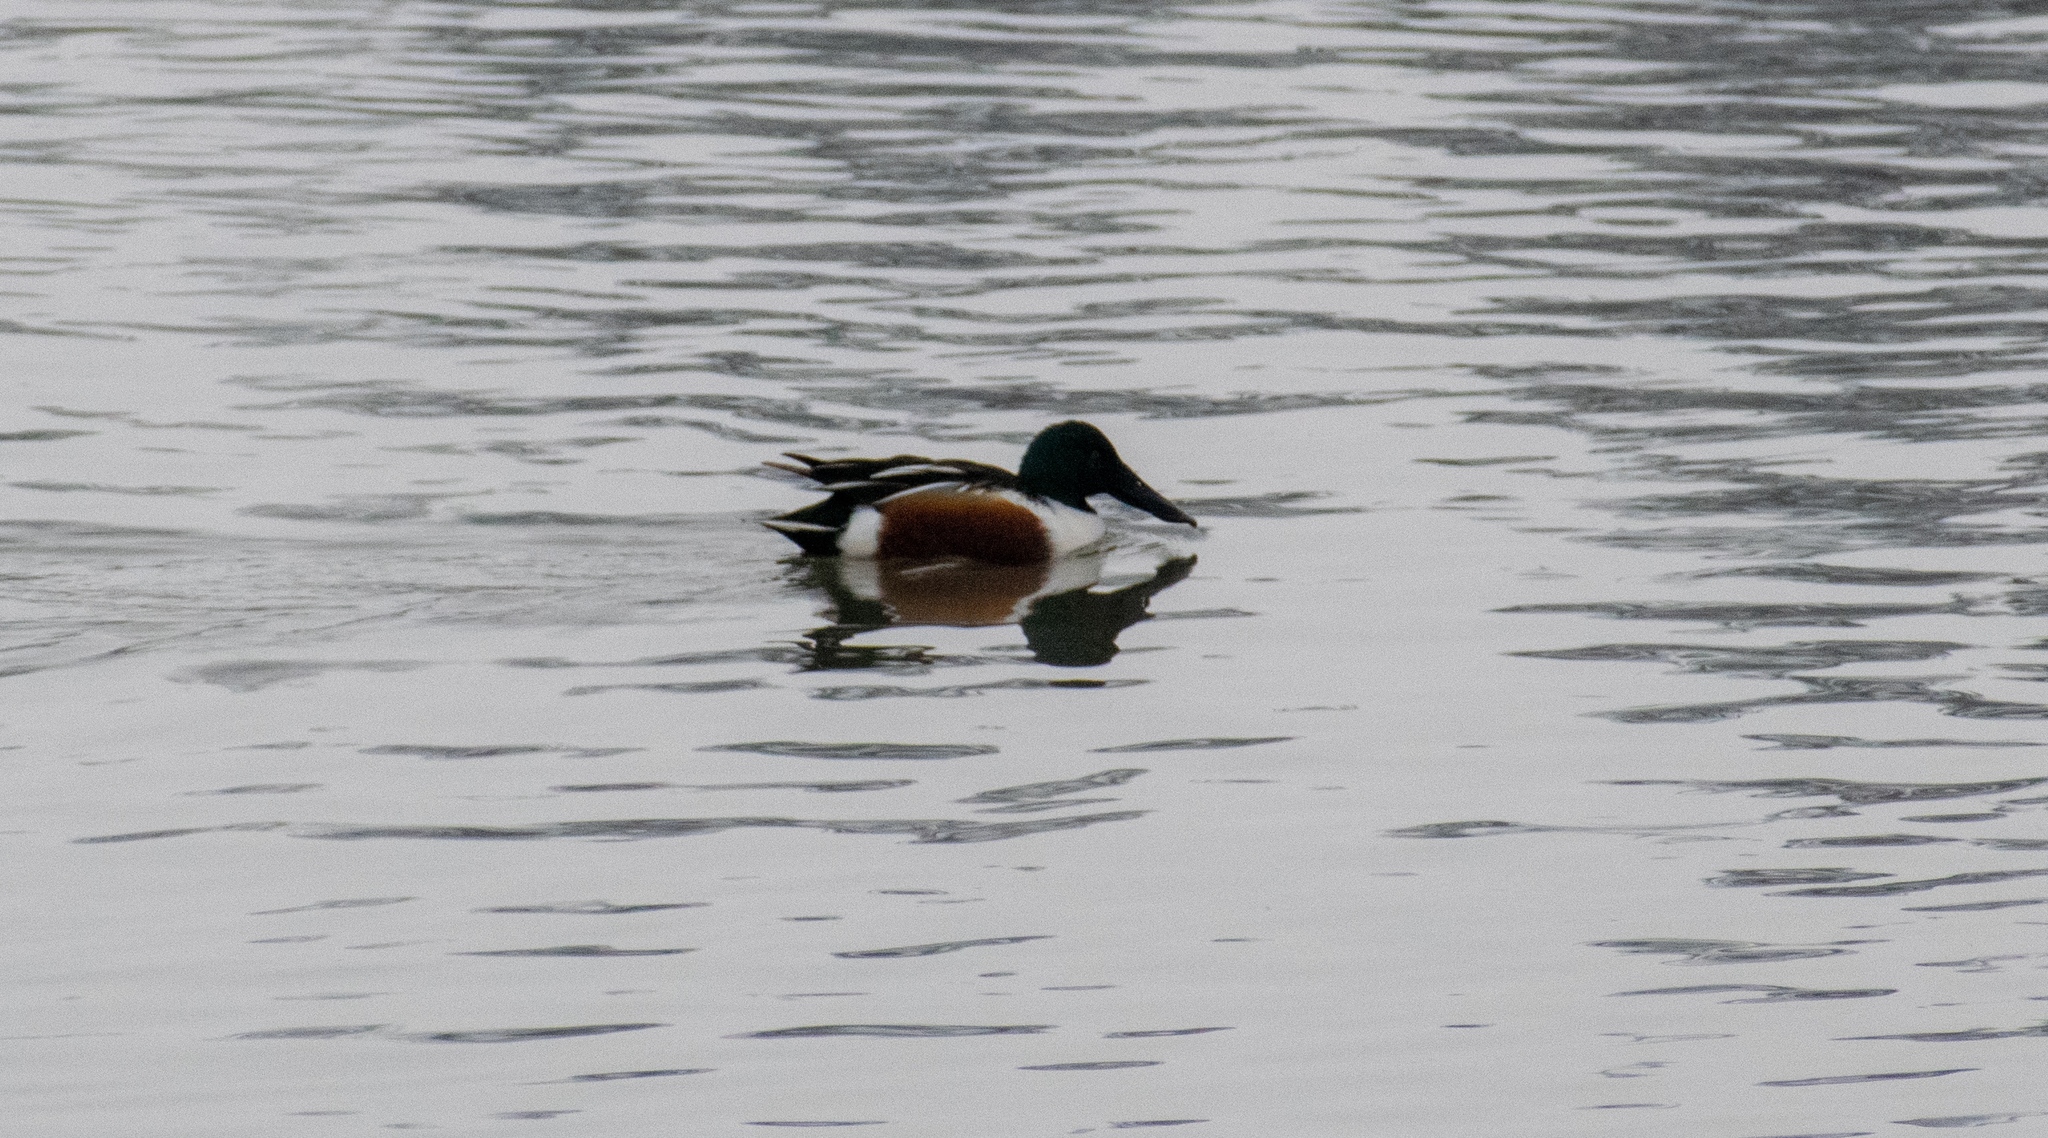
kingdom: Animalia
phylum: Chordata
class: Aves
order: Anseriformes
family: Anatidae
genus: Spatula
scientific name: Spatula clypeata
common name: Northern shoveler
